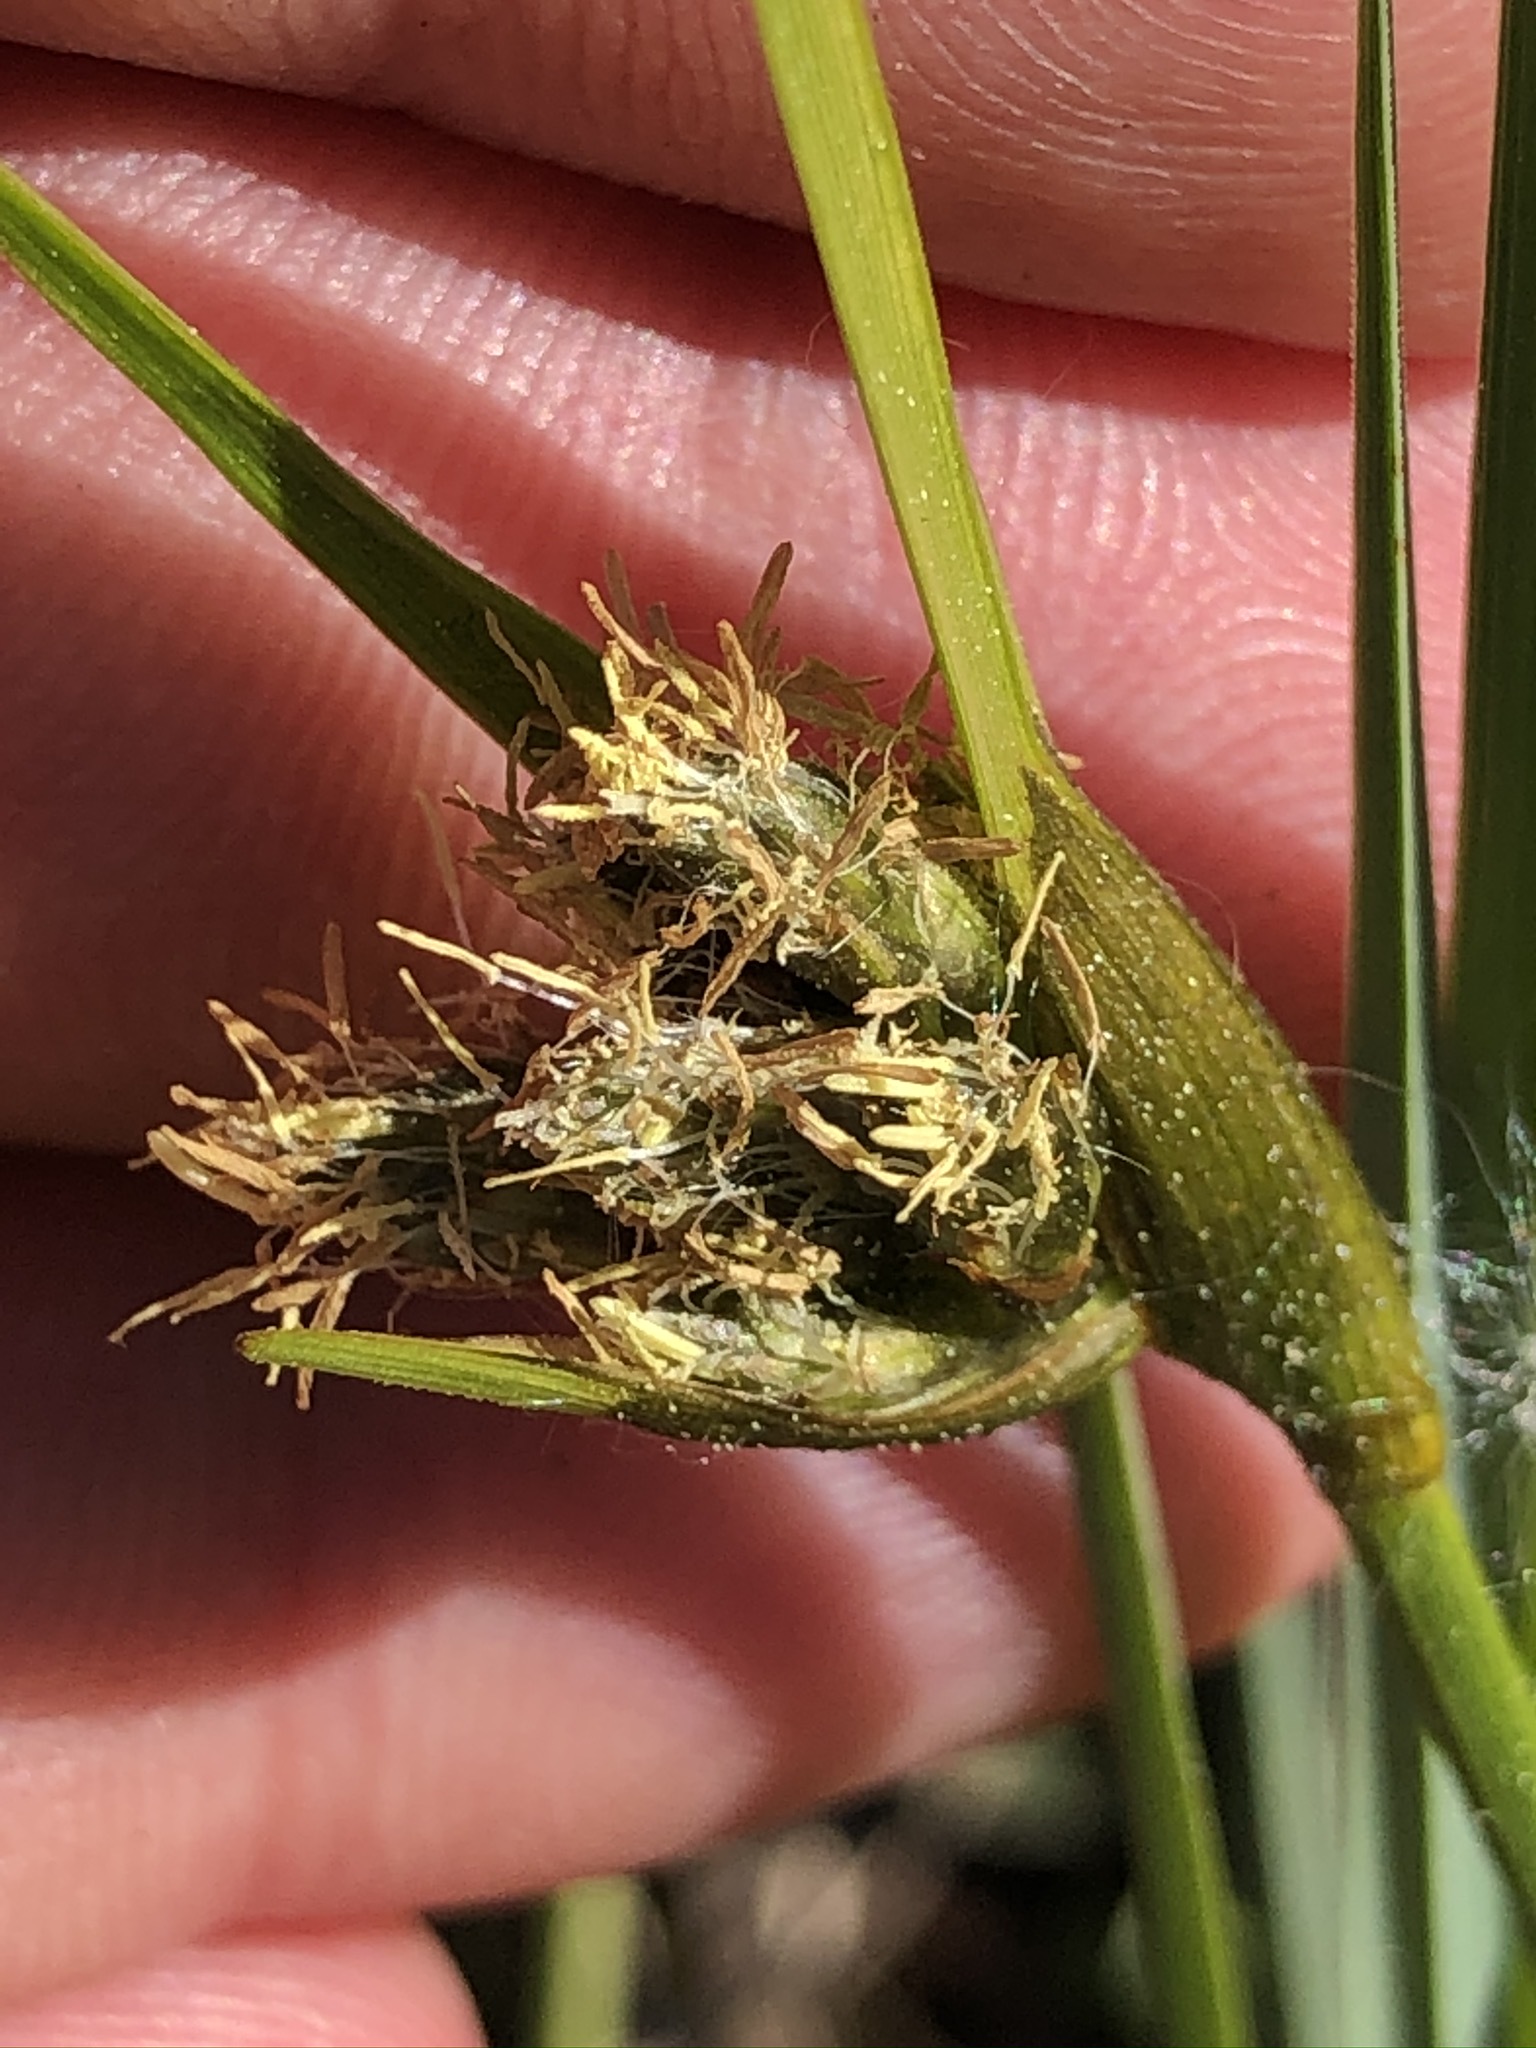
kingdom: Plantae
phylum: Tracheophyta
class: Liliopsida
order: Poales
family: Cyperaceae
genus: Eriophorum
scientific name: Eriophorum latifolium
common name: Broad-leaved cottongrass
